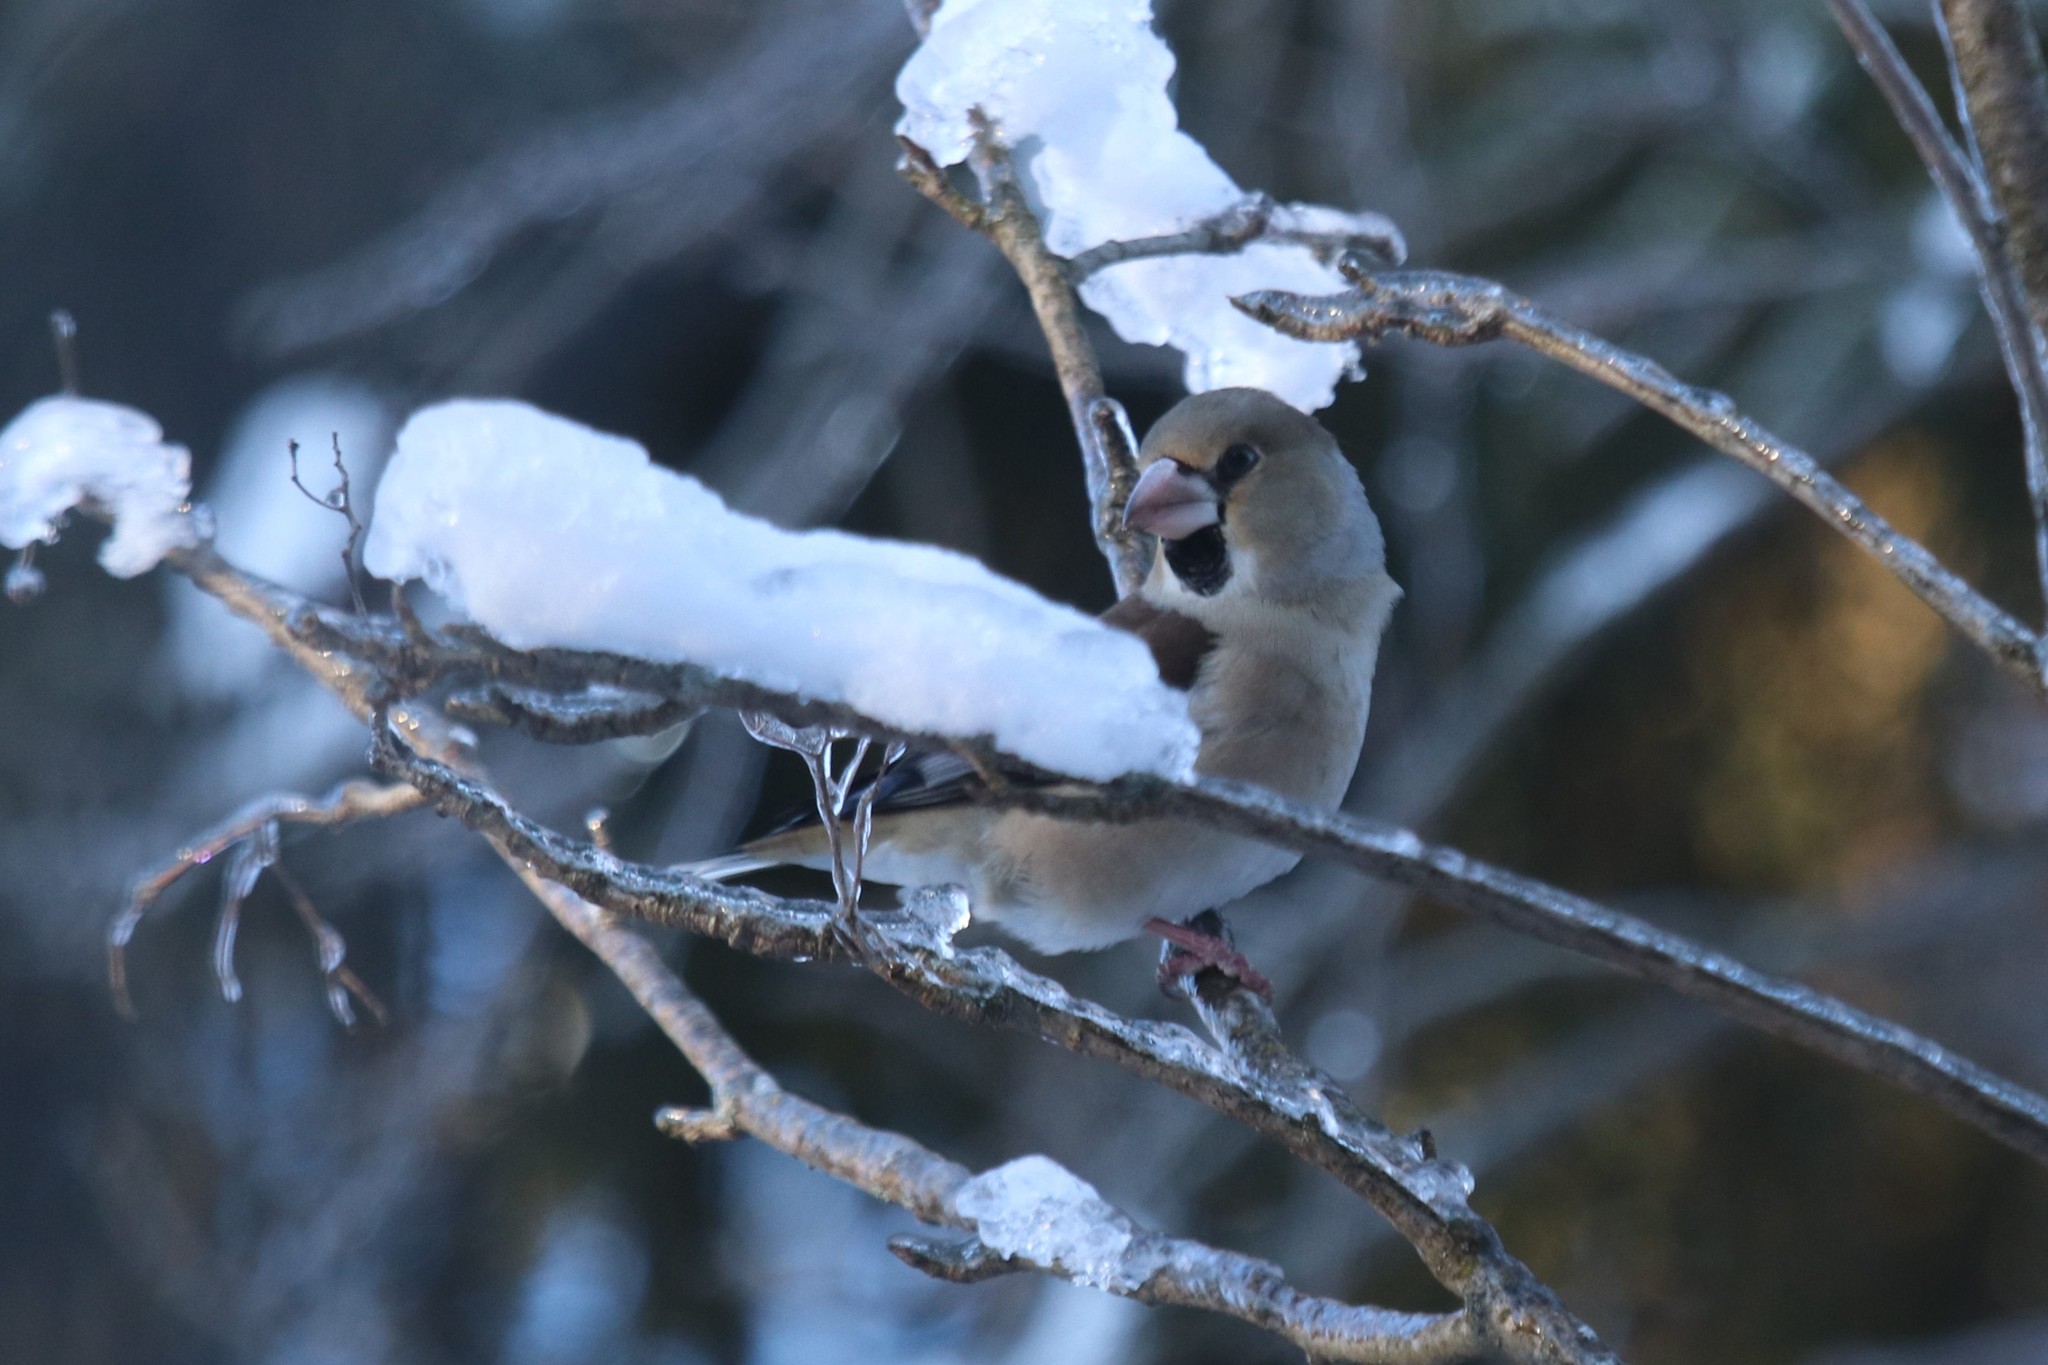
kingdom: Animalia
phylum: Chordata
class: Aves
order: Passeriformes
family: Fringillidae
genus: Coccothraustes
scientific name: Coccothraustes coccothraustes
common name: Hawfinch
